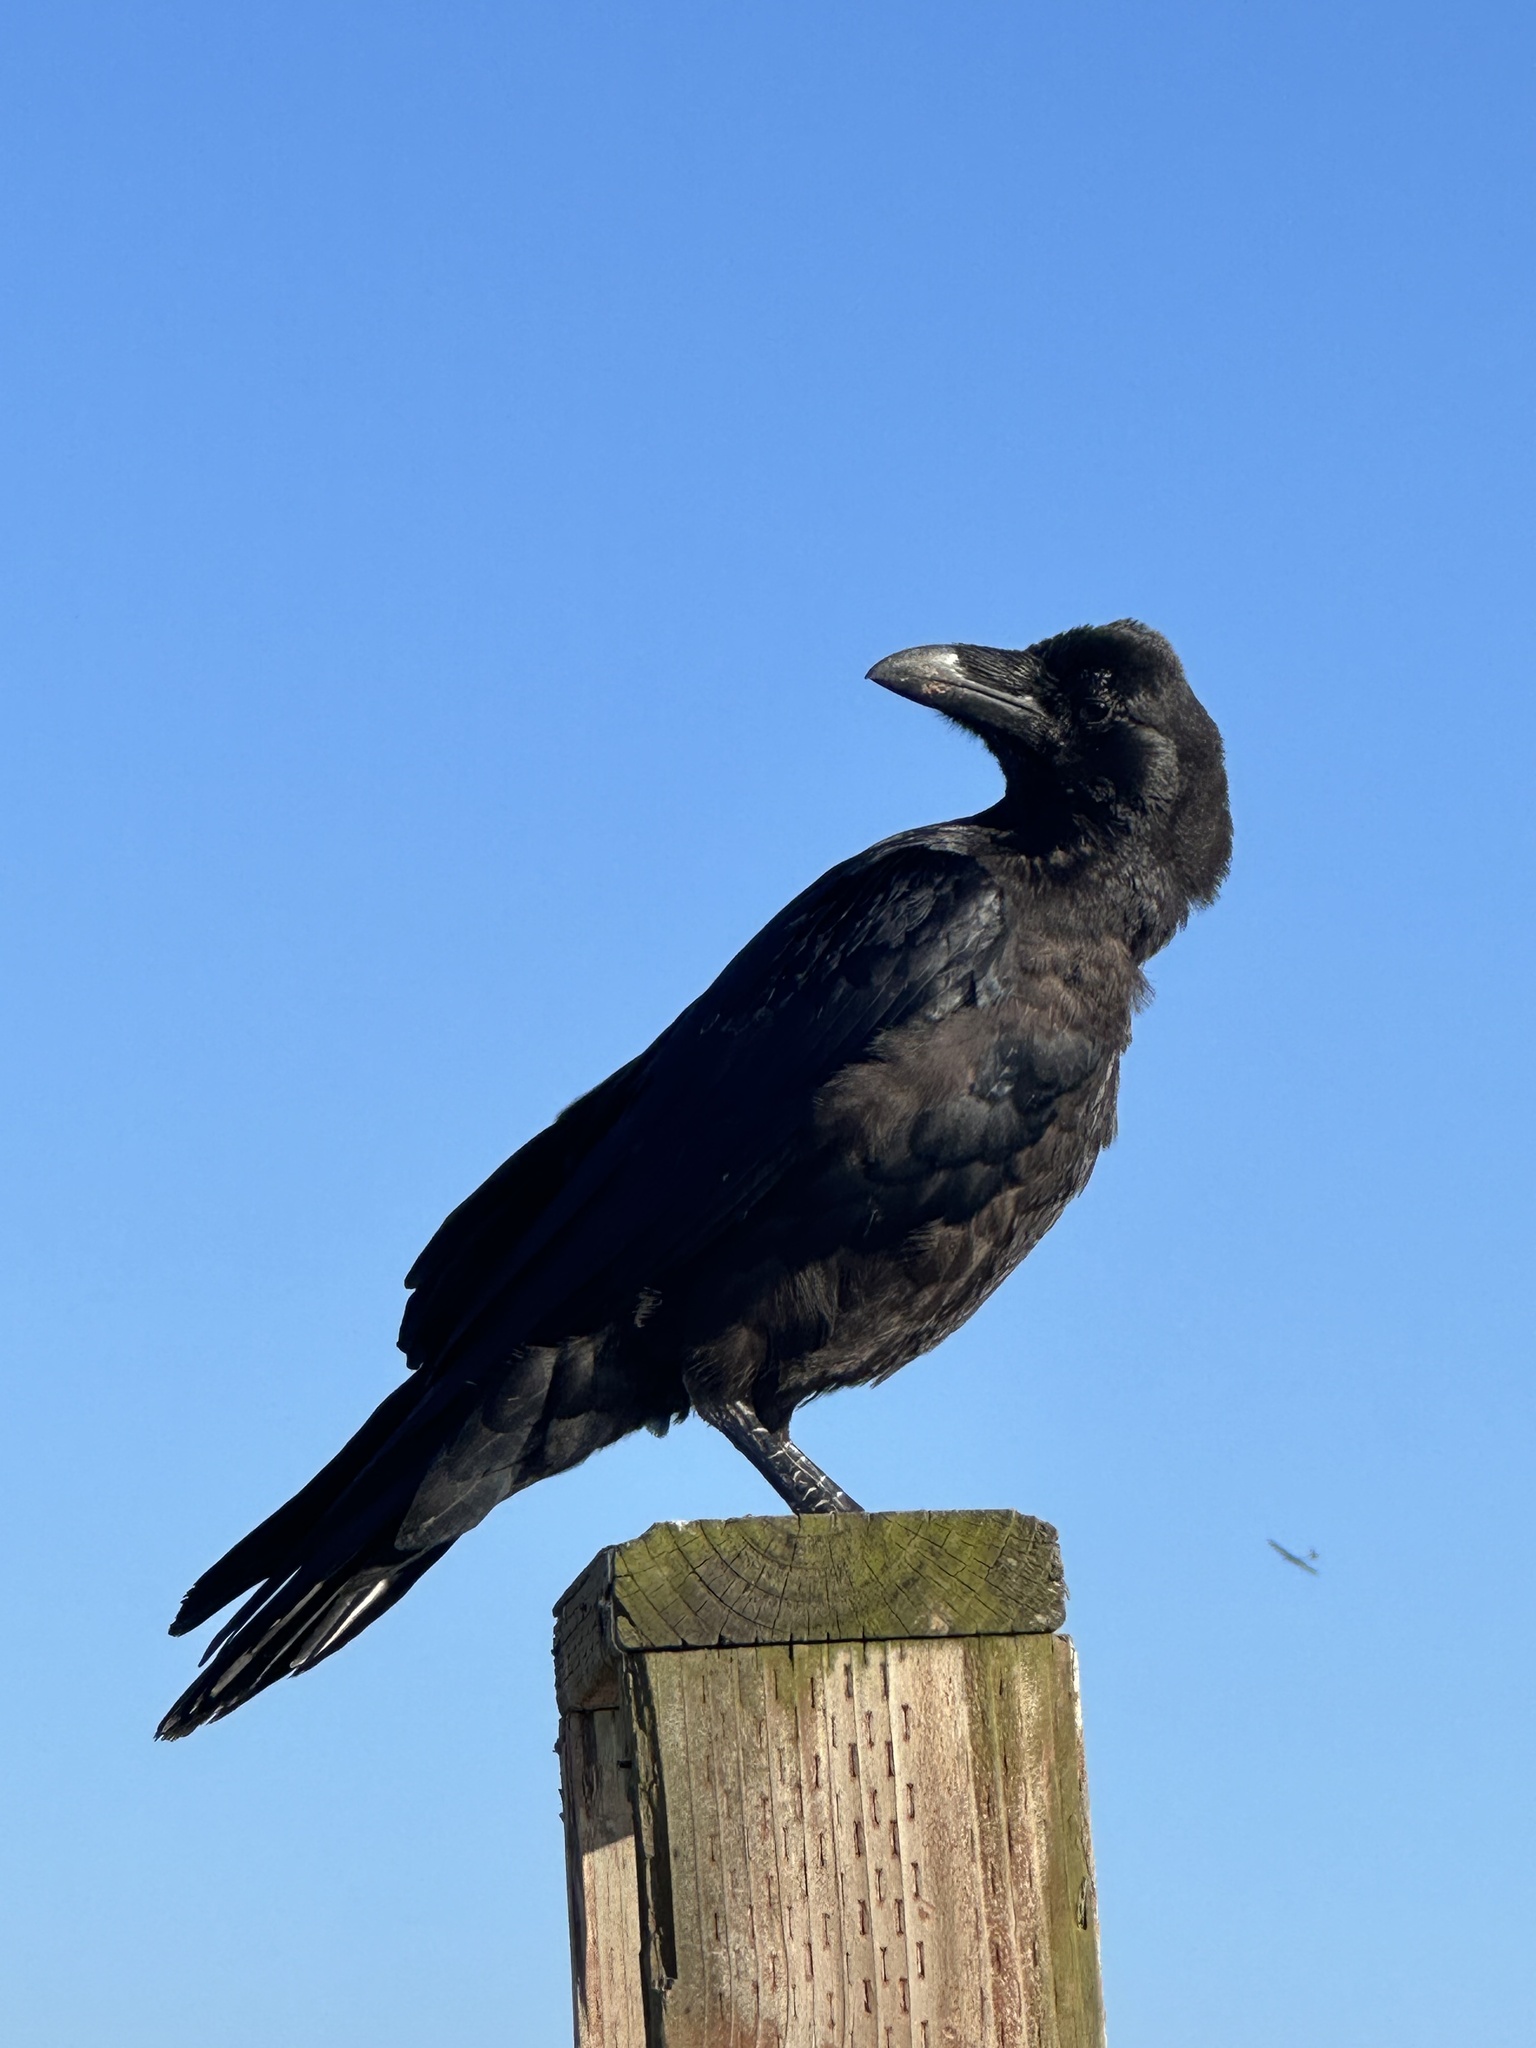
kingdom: Animalia
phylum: Chordata
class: Aves
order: Passeriformes
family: Corvidae
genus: Corvus
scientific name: Corvus corax
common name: Common raven
